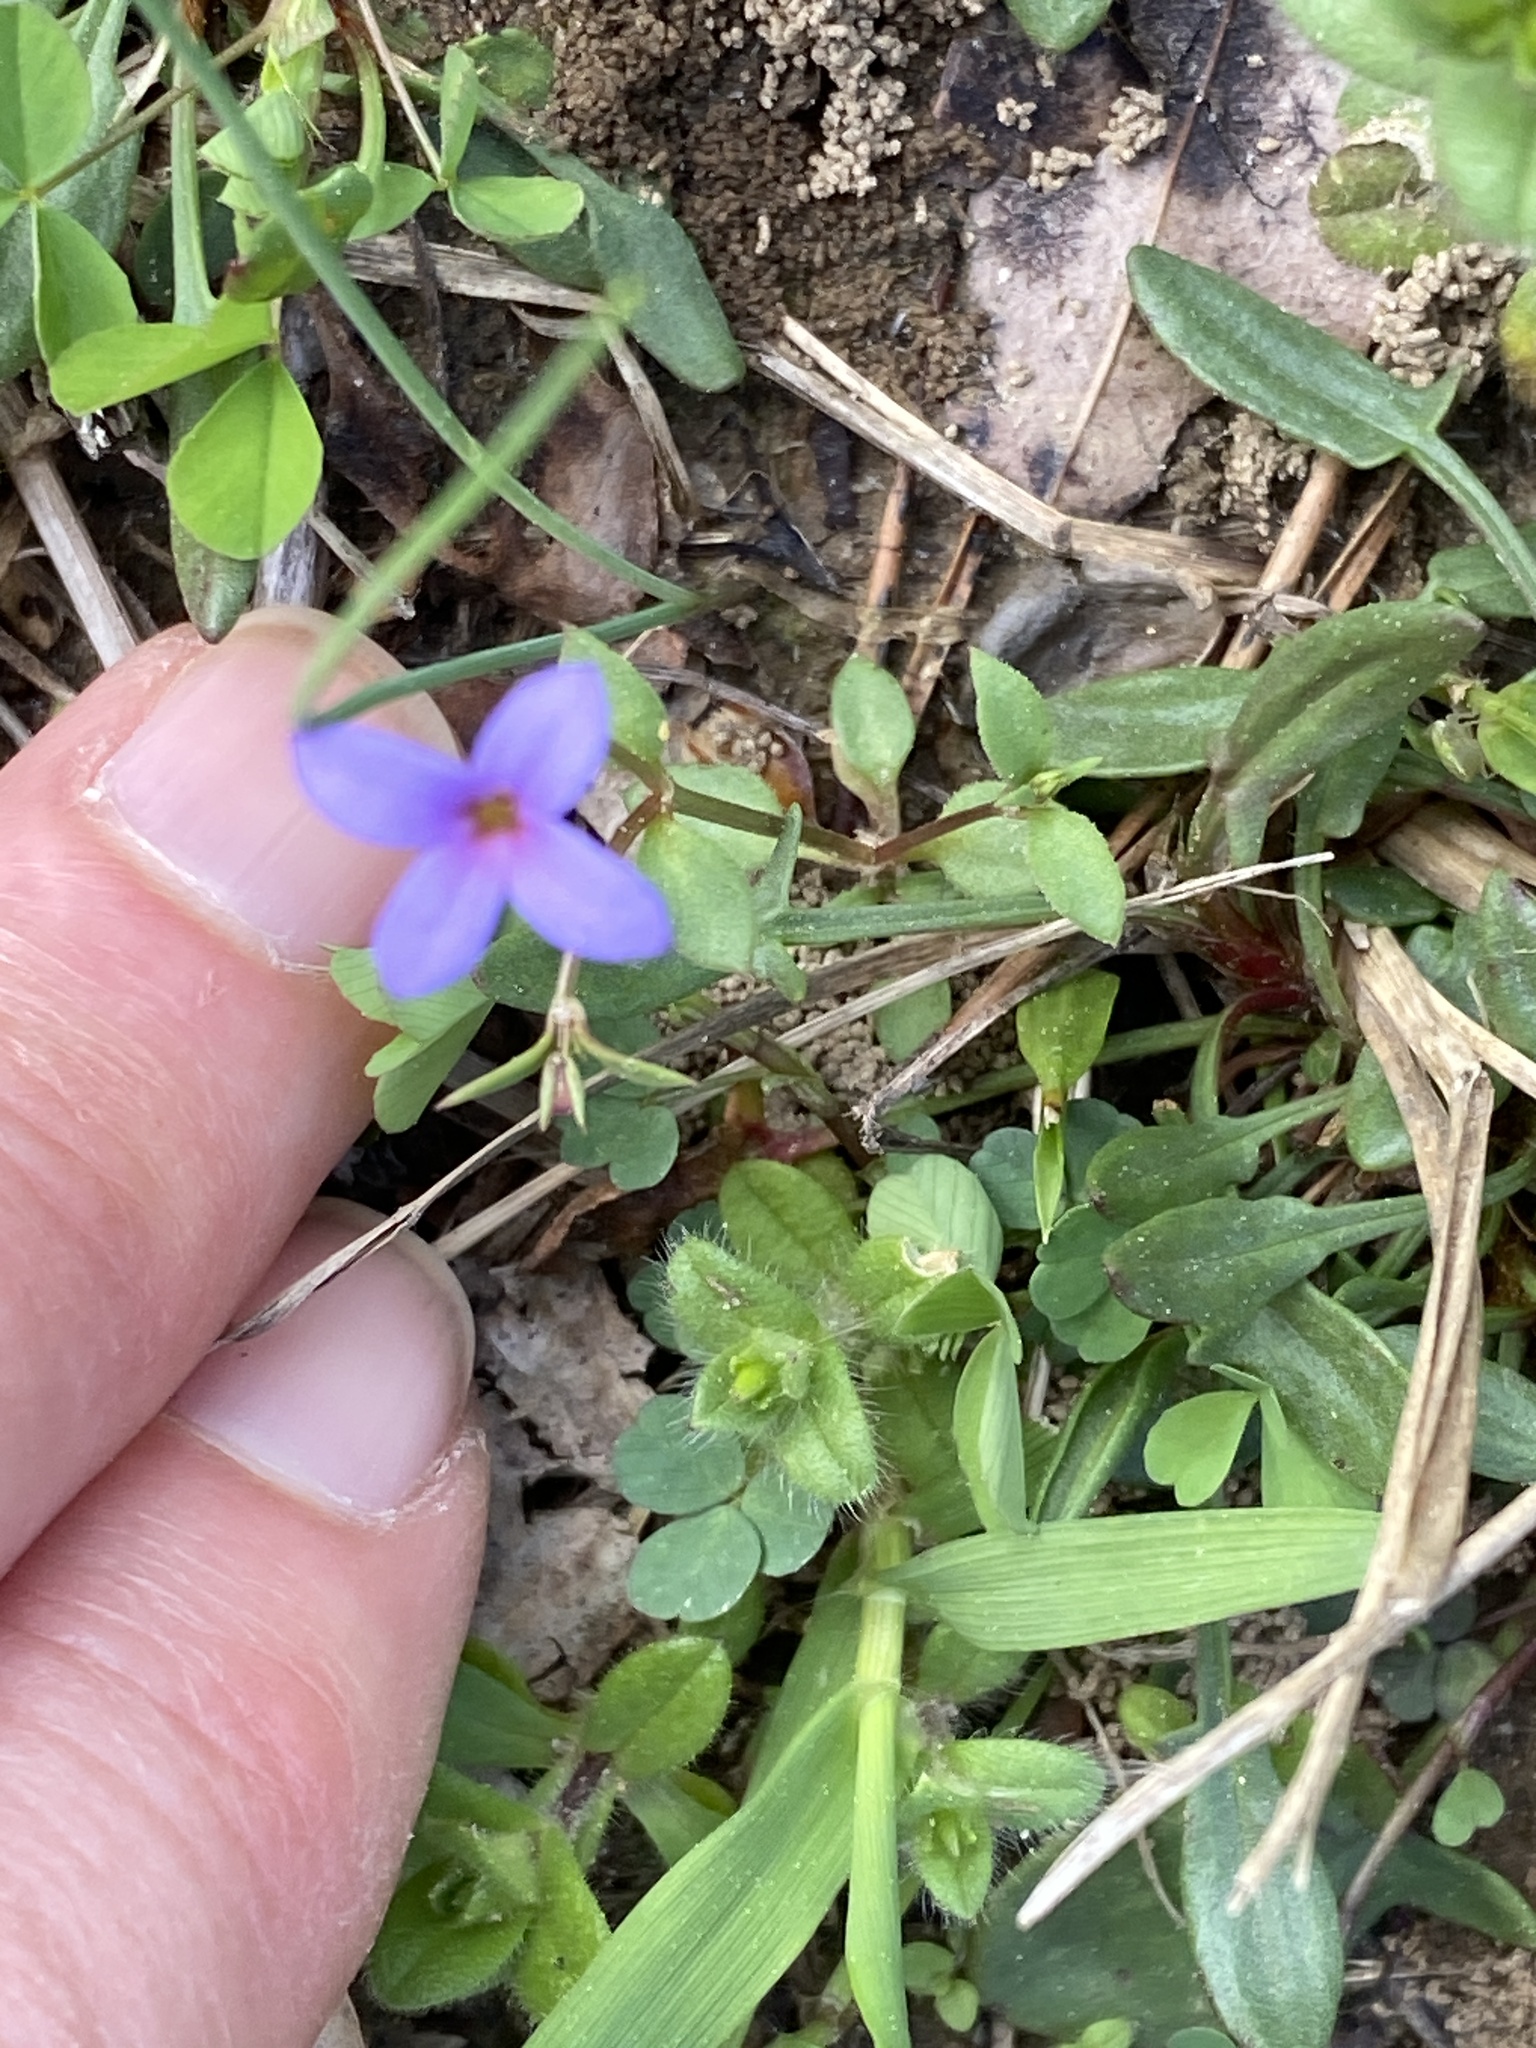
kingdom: Plantae
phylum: Tracheophyta
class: Magnoliopsida
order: Gentianales
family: Rubiaceae
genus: Houstonia
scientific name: Houstonia pusilla
